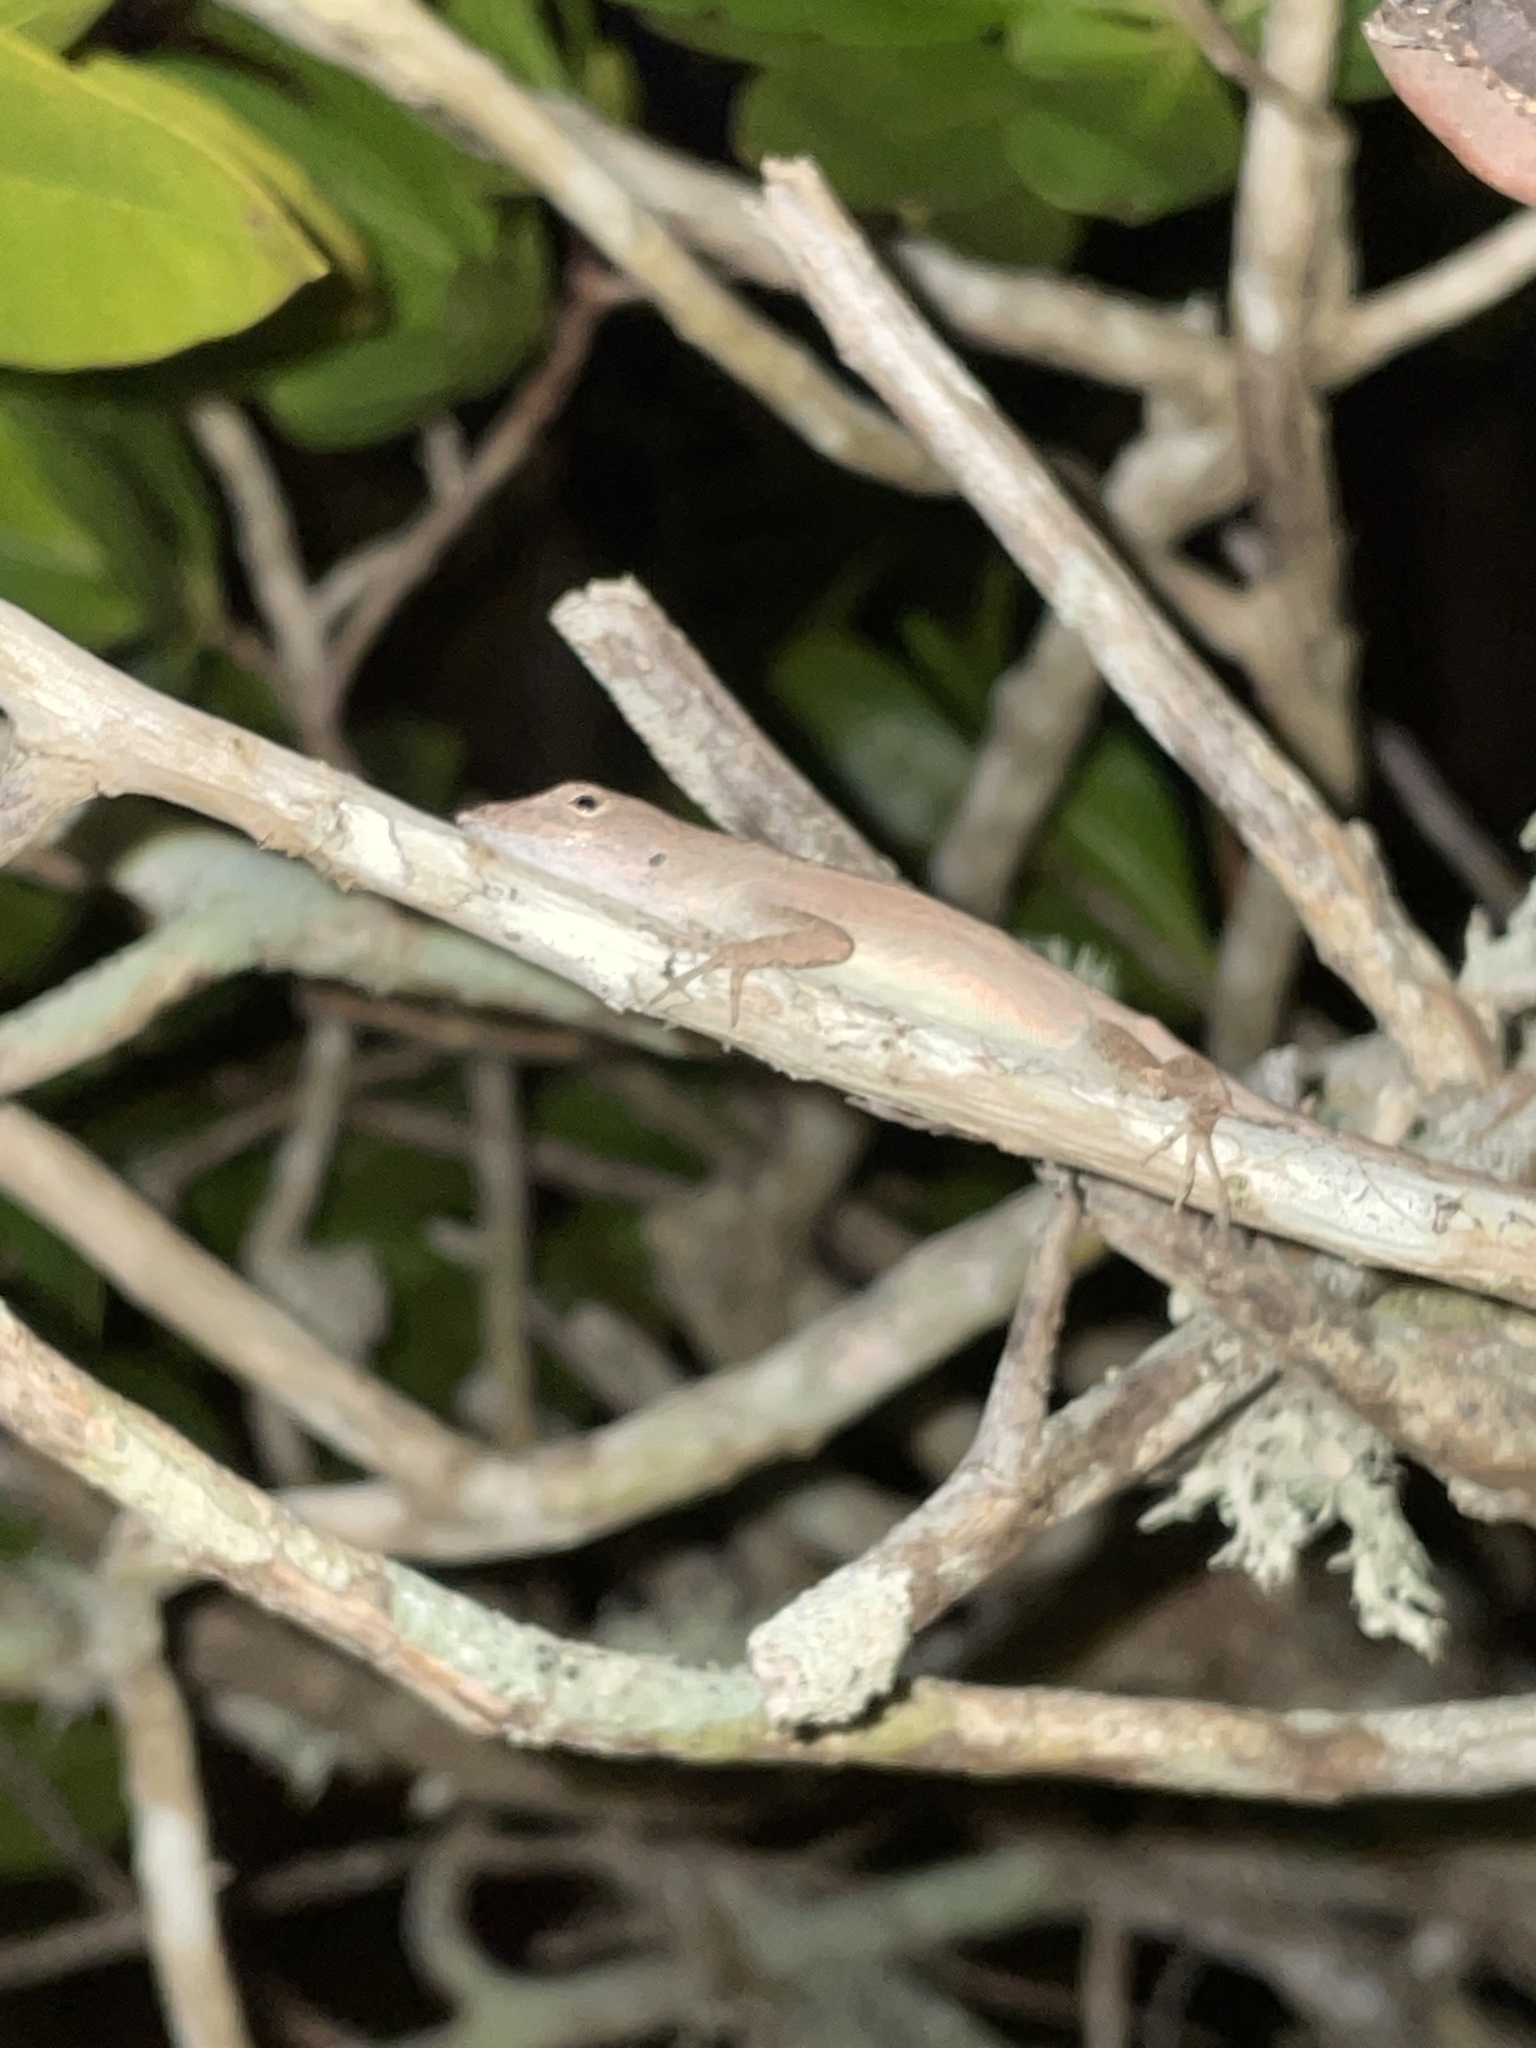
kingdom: Animalia
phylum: Chordata
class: Squamata
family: Dactyloidae
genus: Anolis
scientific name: Anolis sagrei
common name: Brown anole
